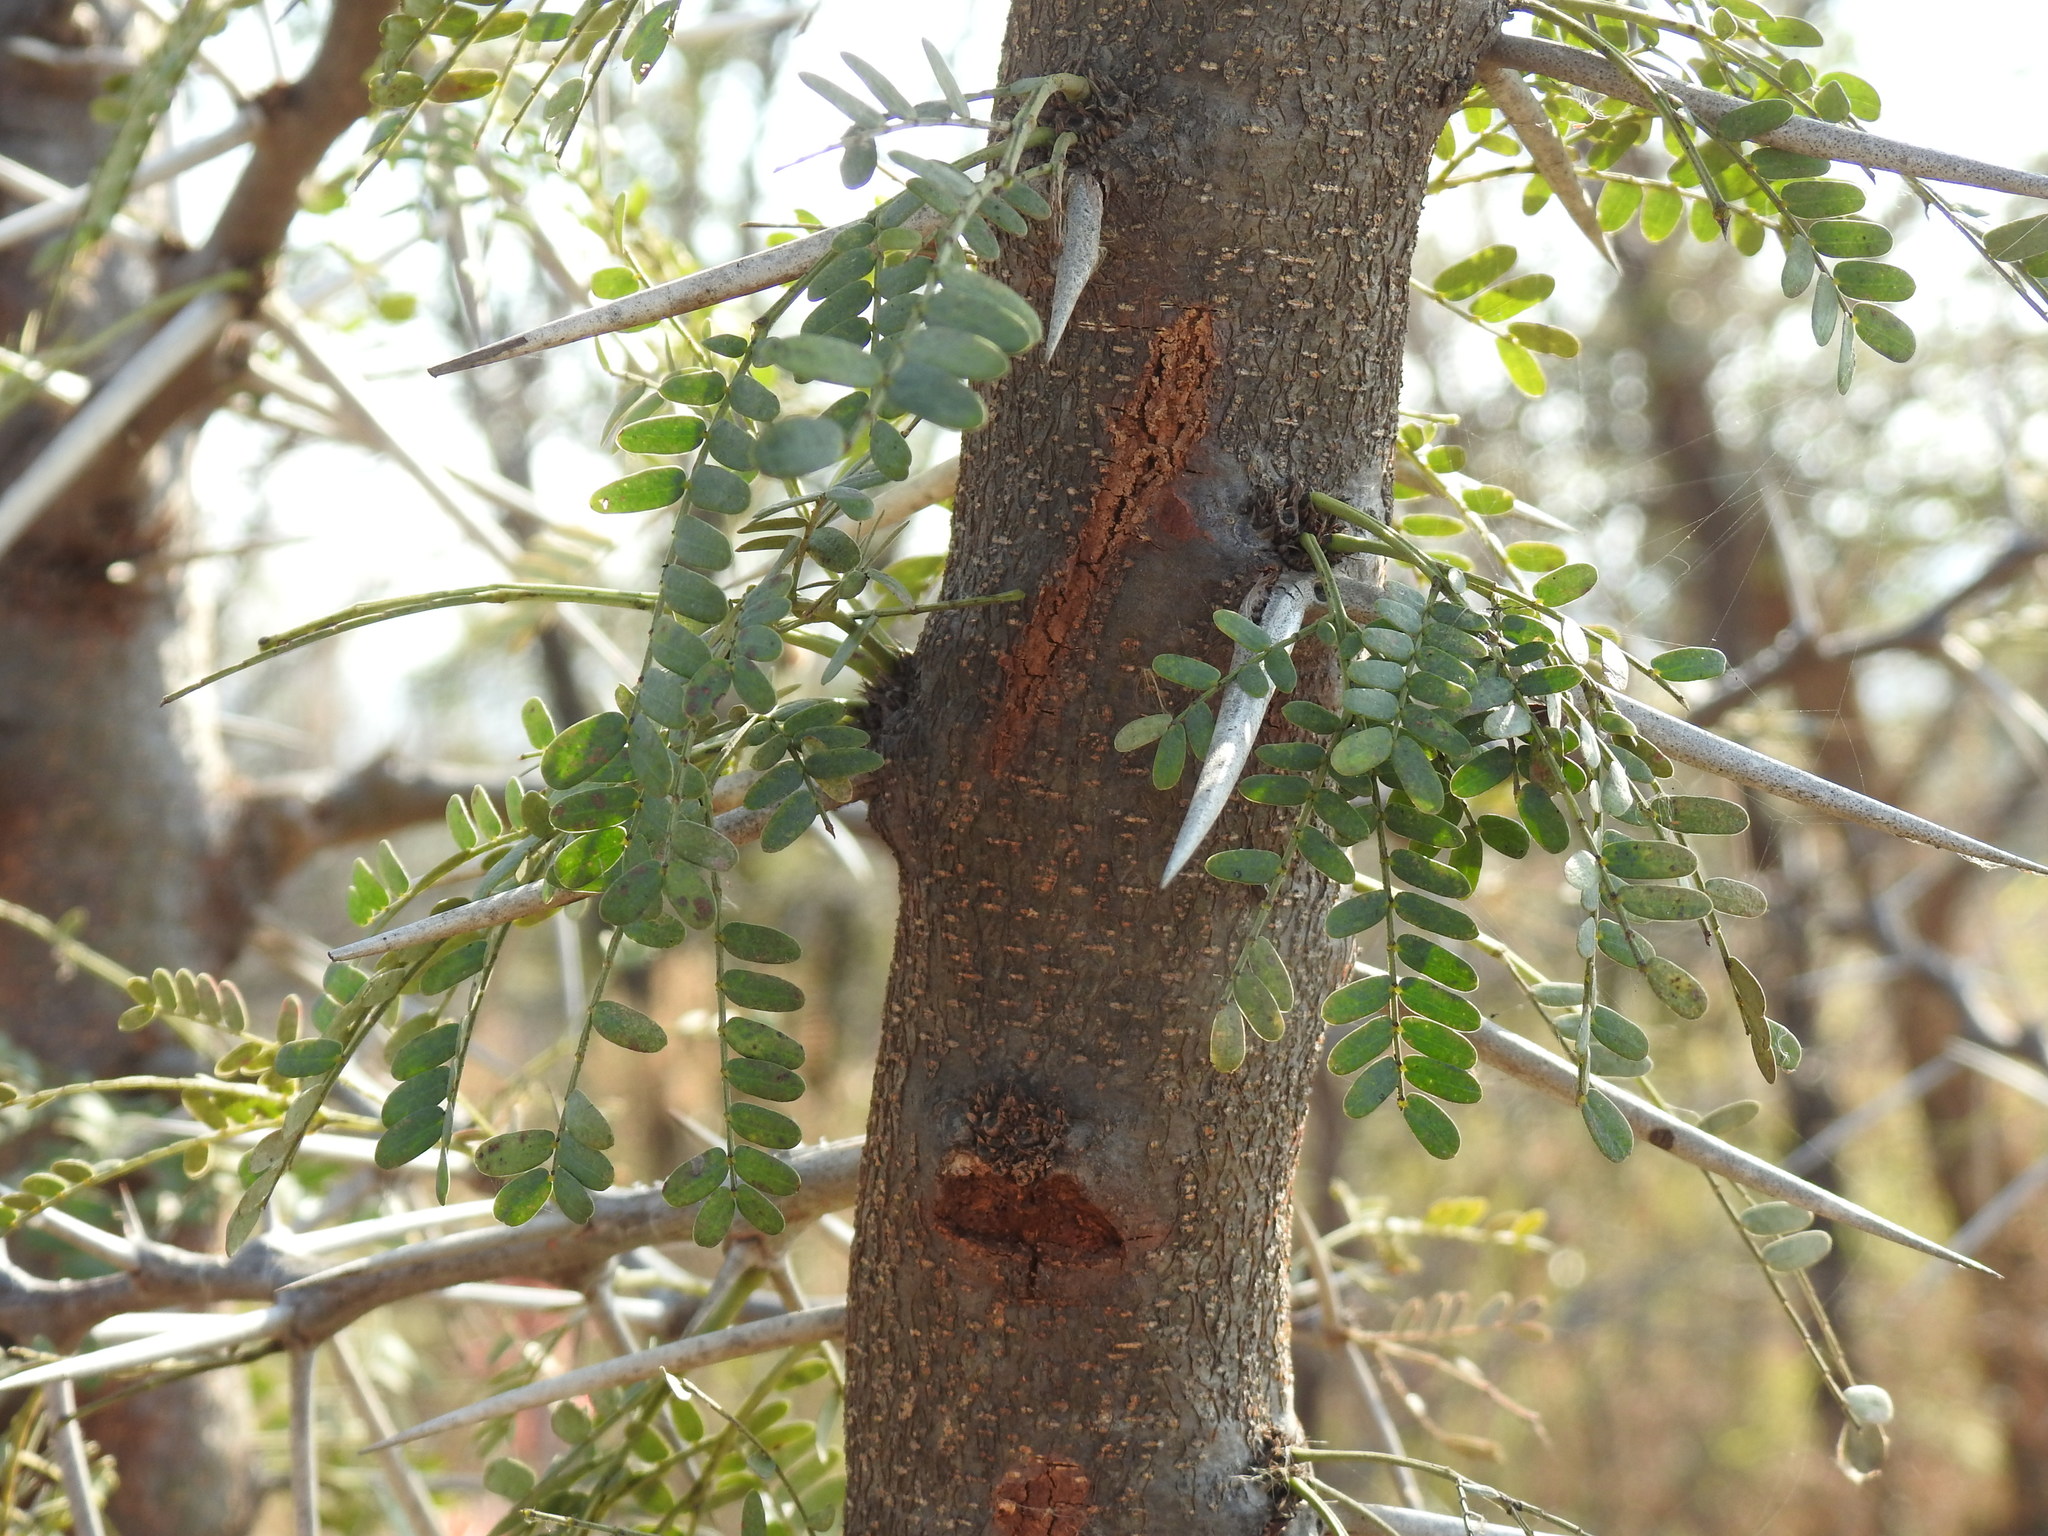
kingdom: Plantae
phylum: Tracheophyta
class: Magnoliopsida
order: Fabales
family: Fabaceae
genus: Vachellia
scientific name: Vachellia karroo
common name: Sweet thorn
